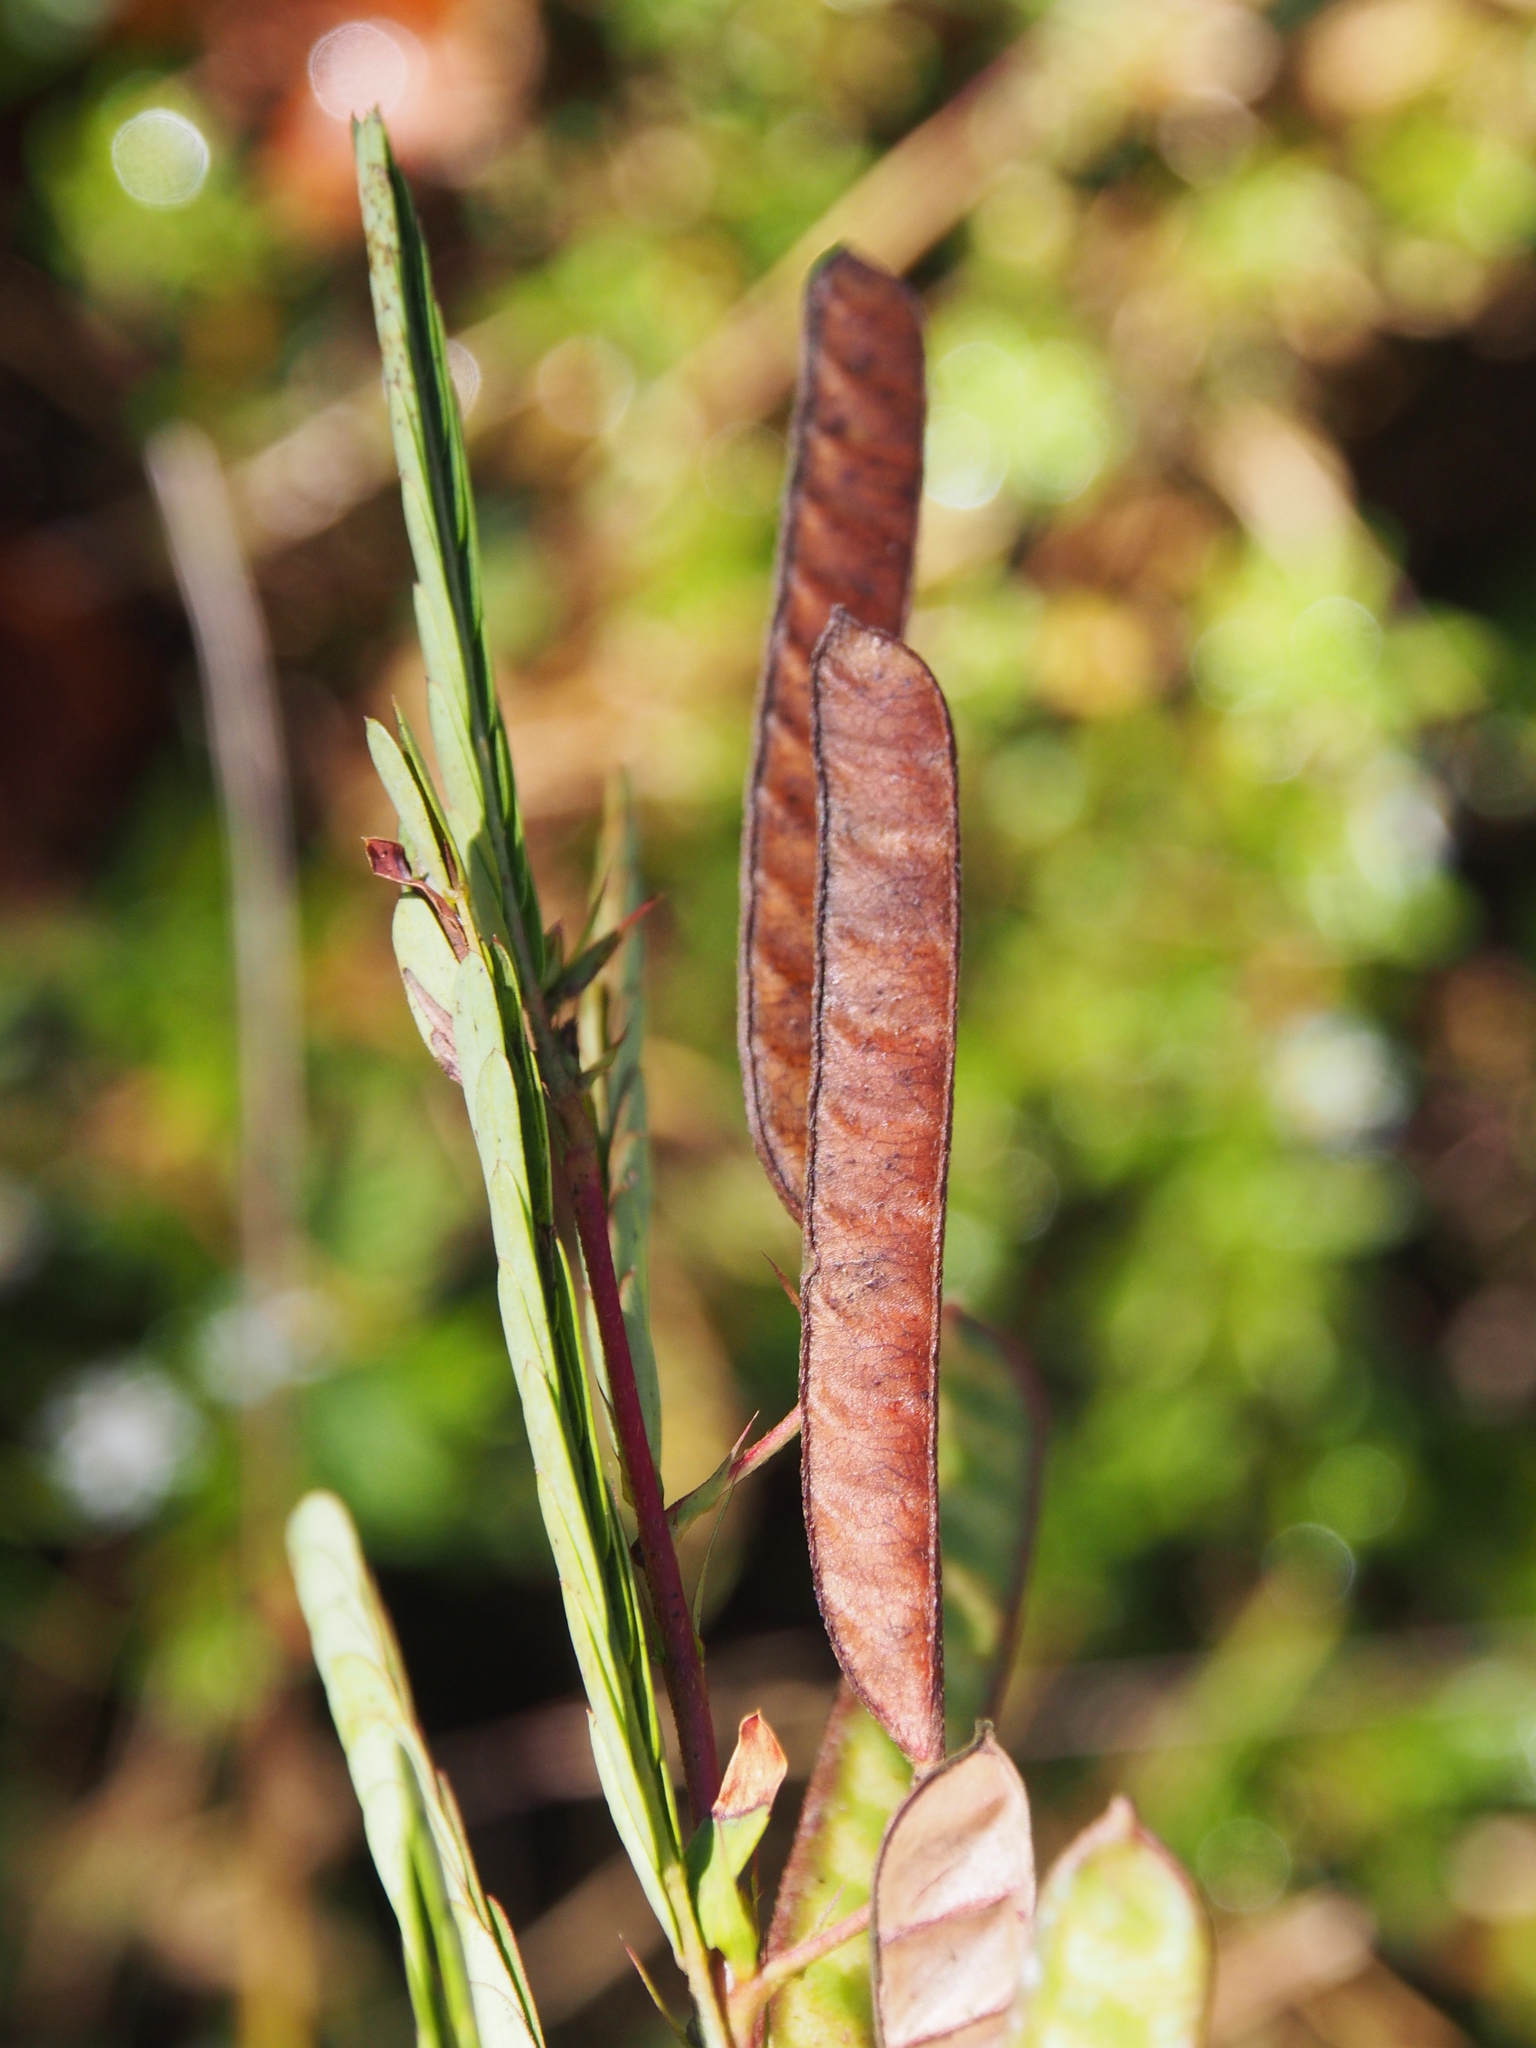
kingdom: Plantae
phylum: Tracheophyta
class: Magnoliopsida
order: Fabales
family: Fabaceae
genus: Chamaecrista
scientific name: Chamaecrista fasciculata
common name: Golden cassia
